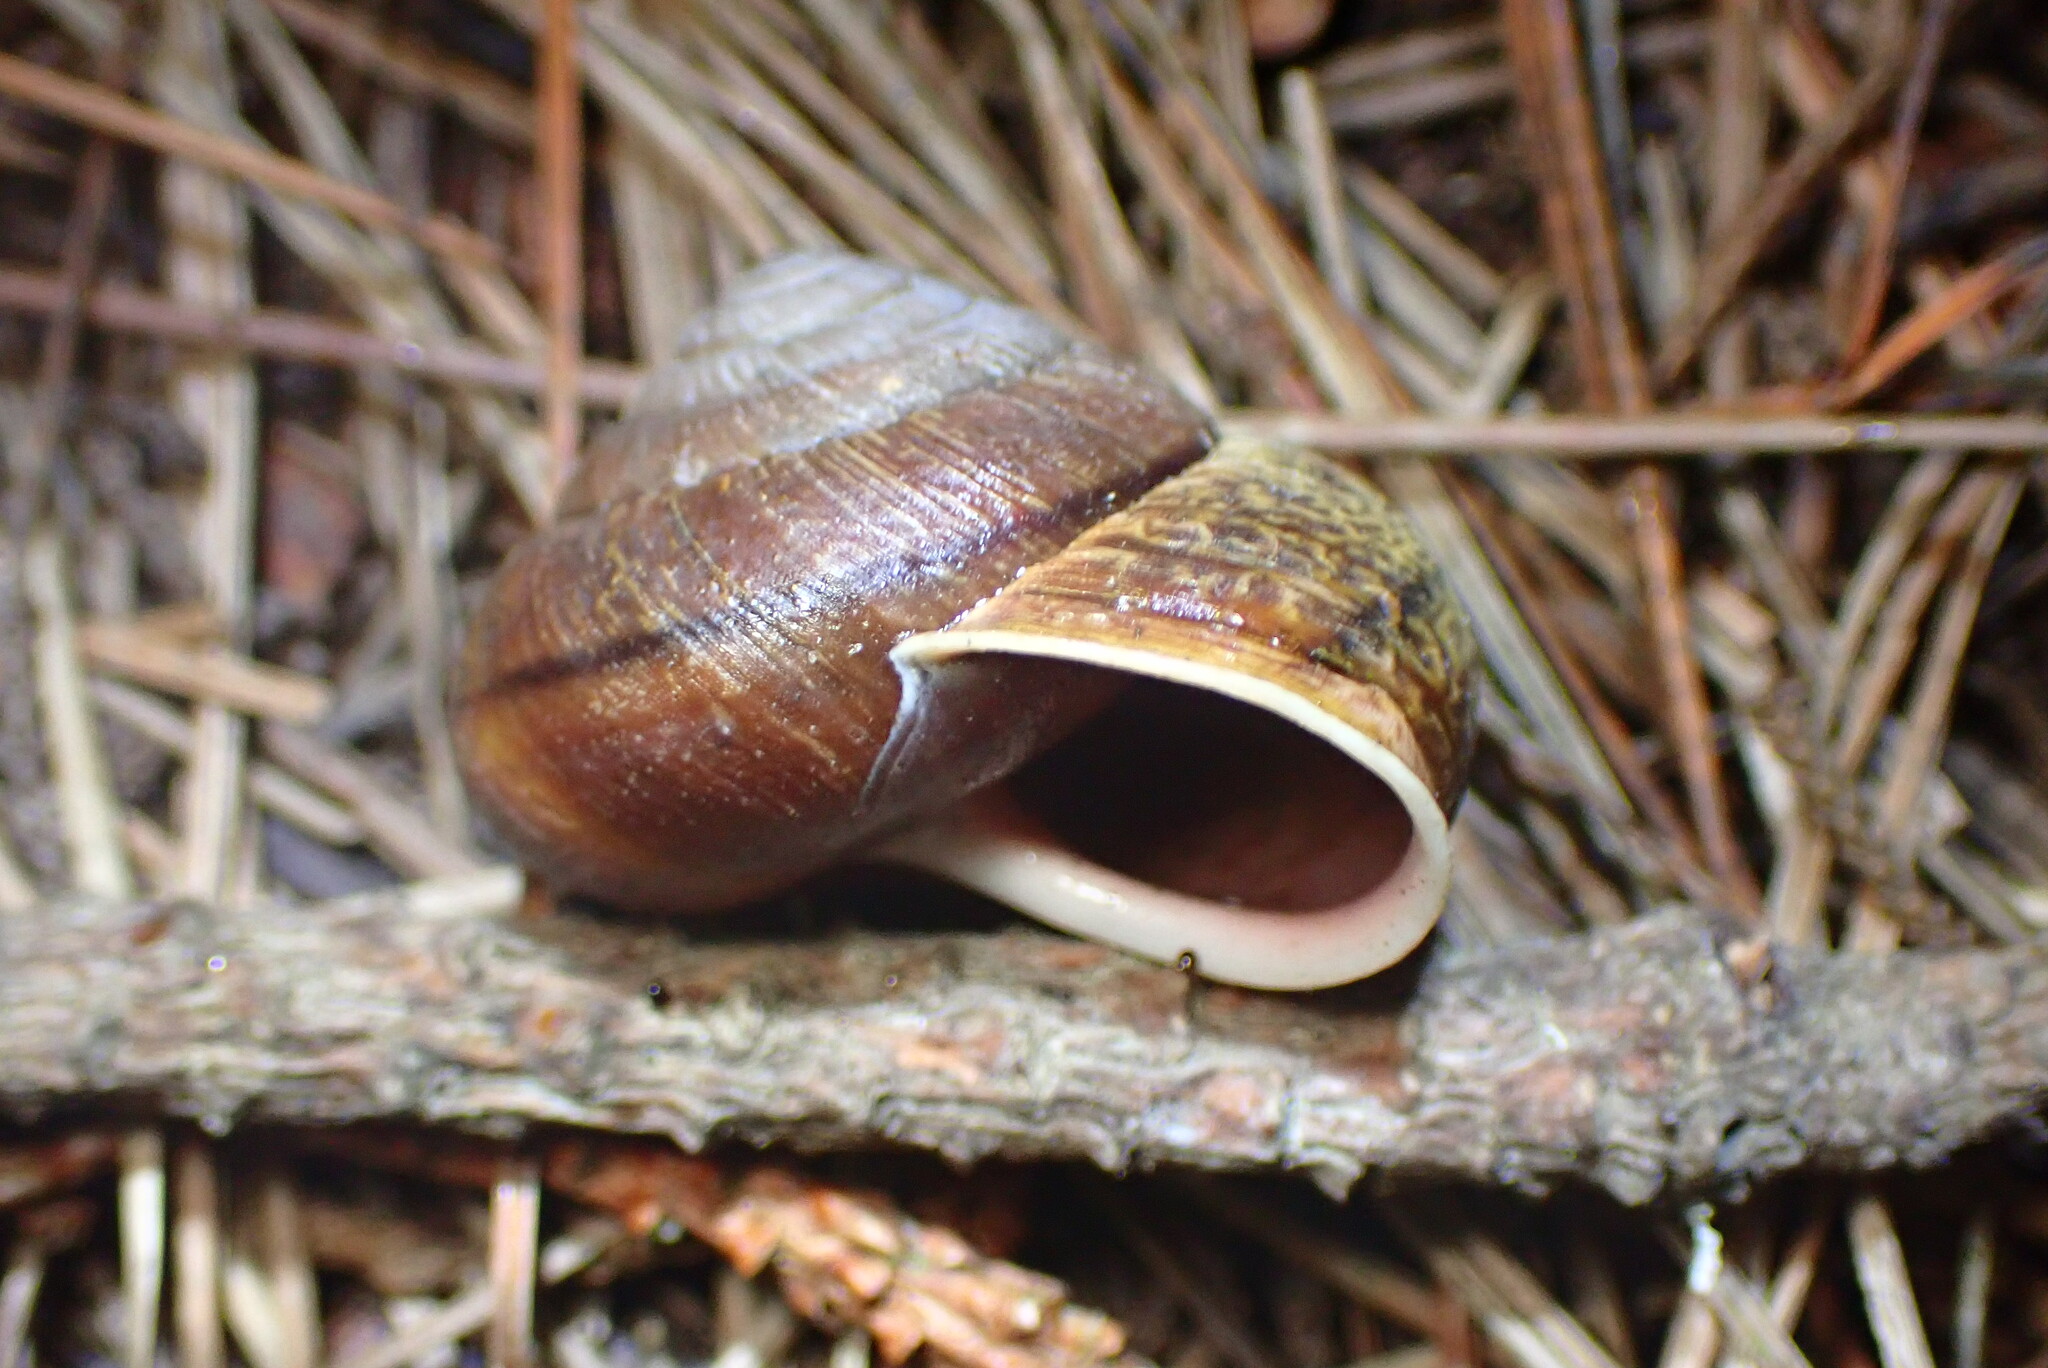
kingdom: Animalia
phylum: Mollusca
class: Gastropoda
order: Stylommatophora
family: Xanthonychidae
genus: Helminthoglypta
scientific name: Helminthoglypta arrosa
